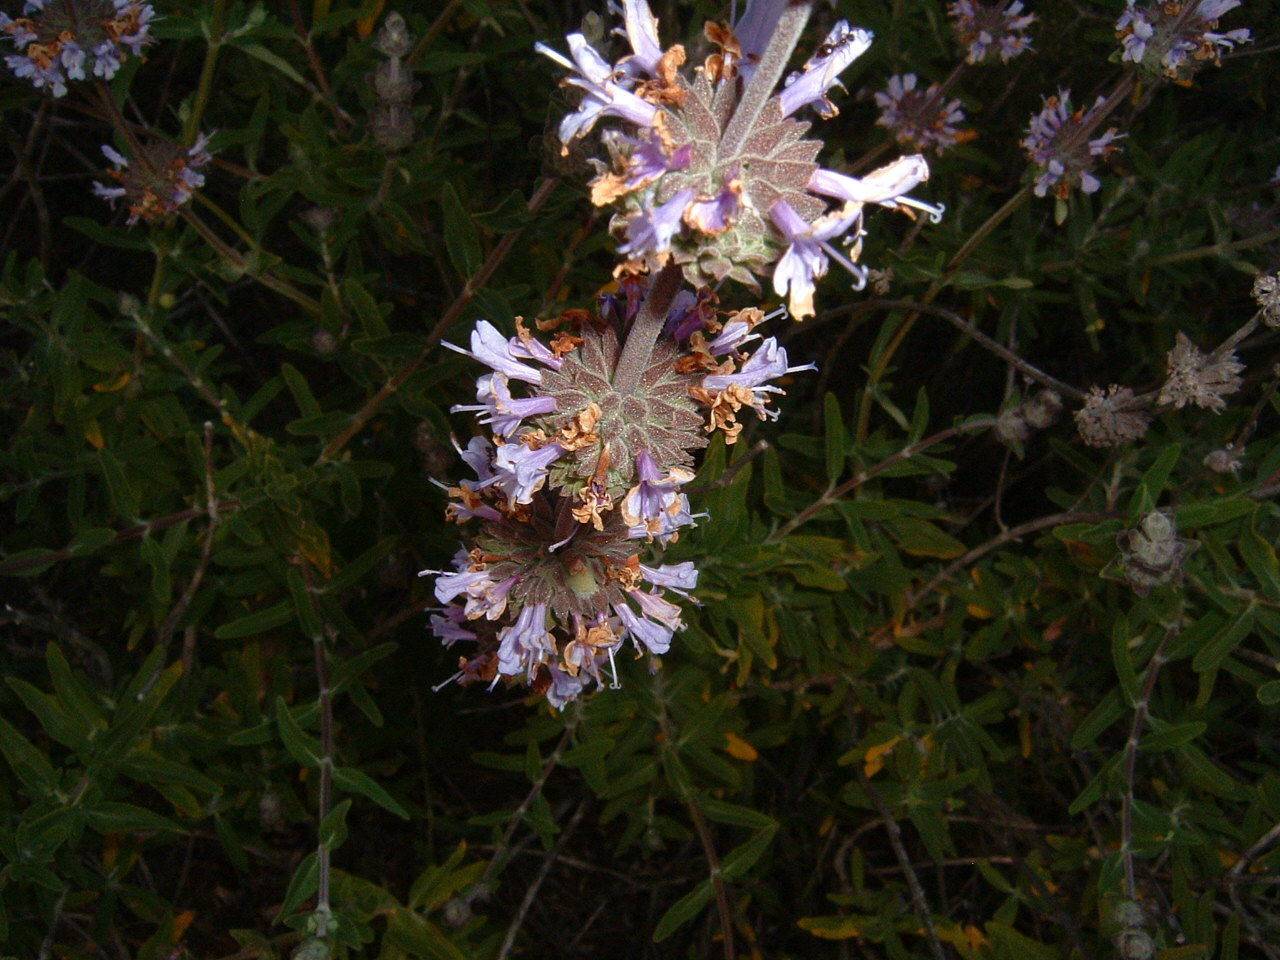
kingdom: Plantae
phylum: Tracheophyta
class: Magnoliopsida
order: Lamiales
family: Lamiaceae
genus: Salvia
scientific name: Salvia mellifera
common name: Black sage
